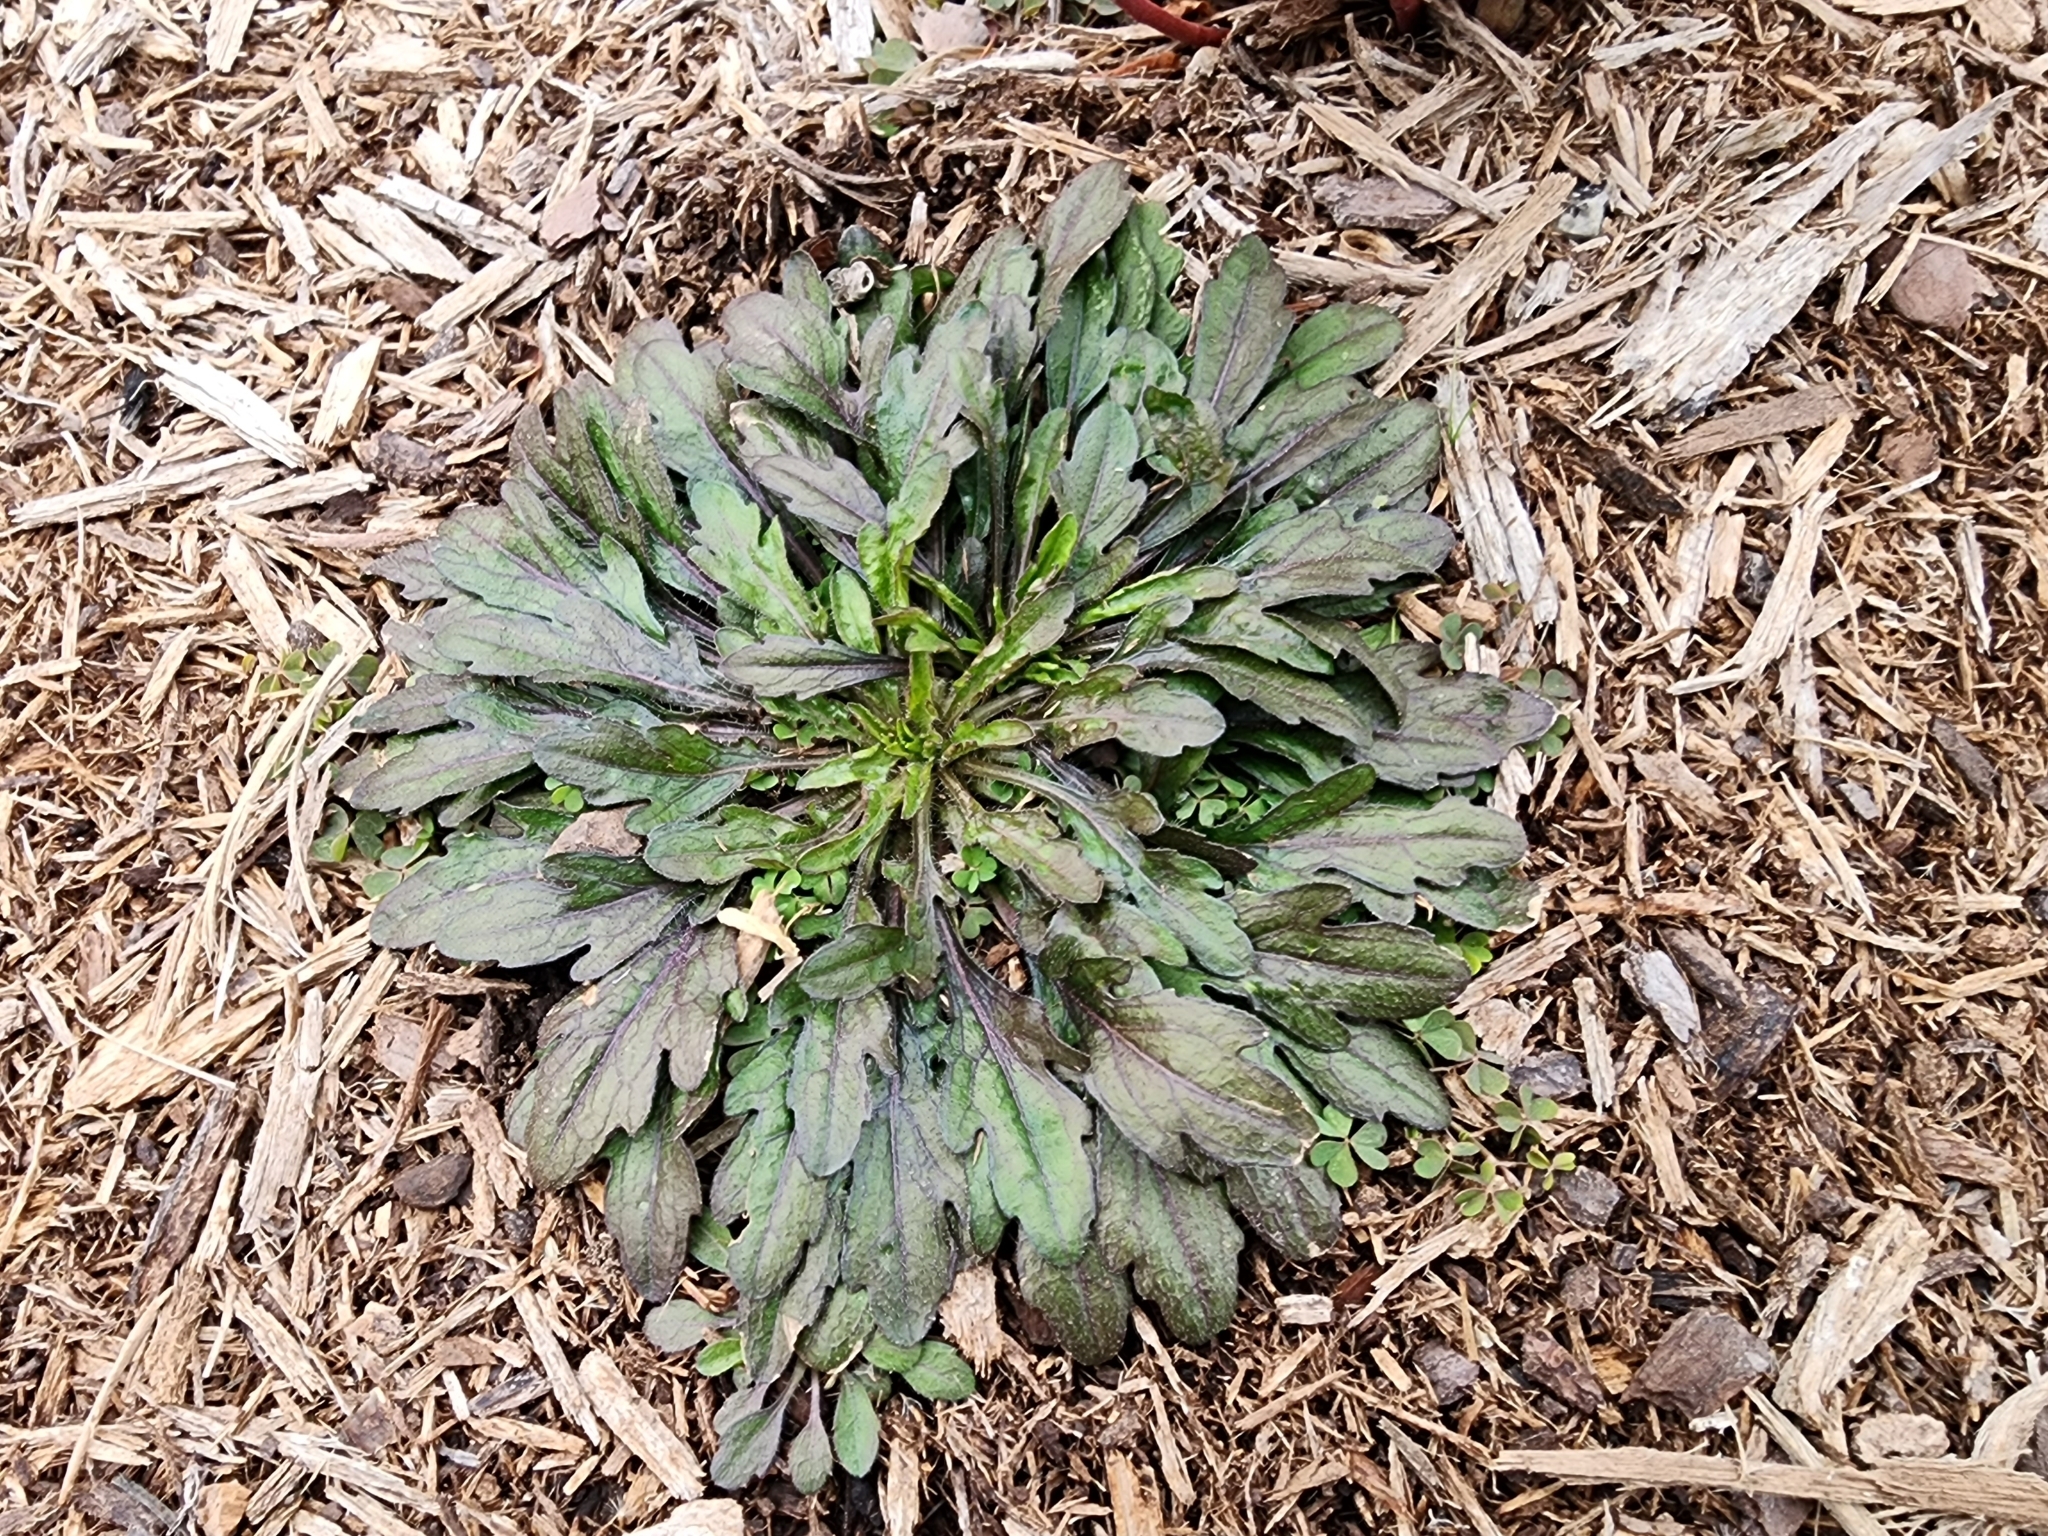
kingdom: Plantae
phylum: Tracheophyta
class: Magnoliopsida
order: Asterales
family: Asteraceae
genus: Erigeron
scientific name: Erigeron canadensis
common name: Canadian fleabane
